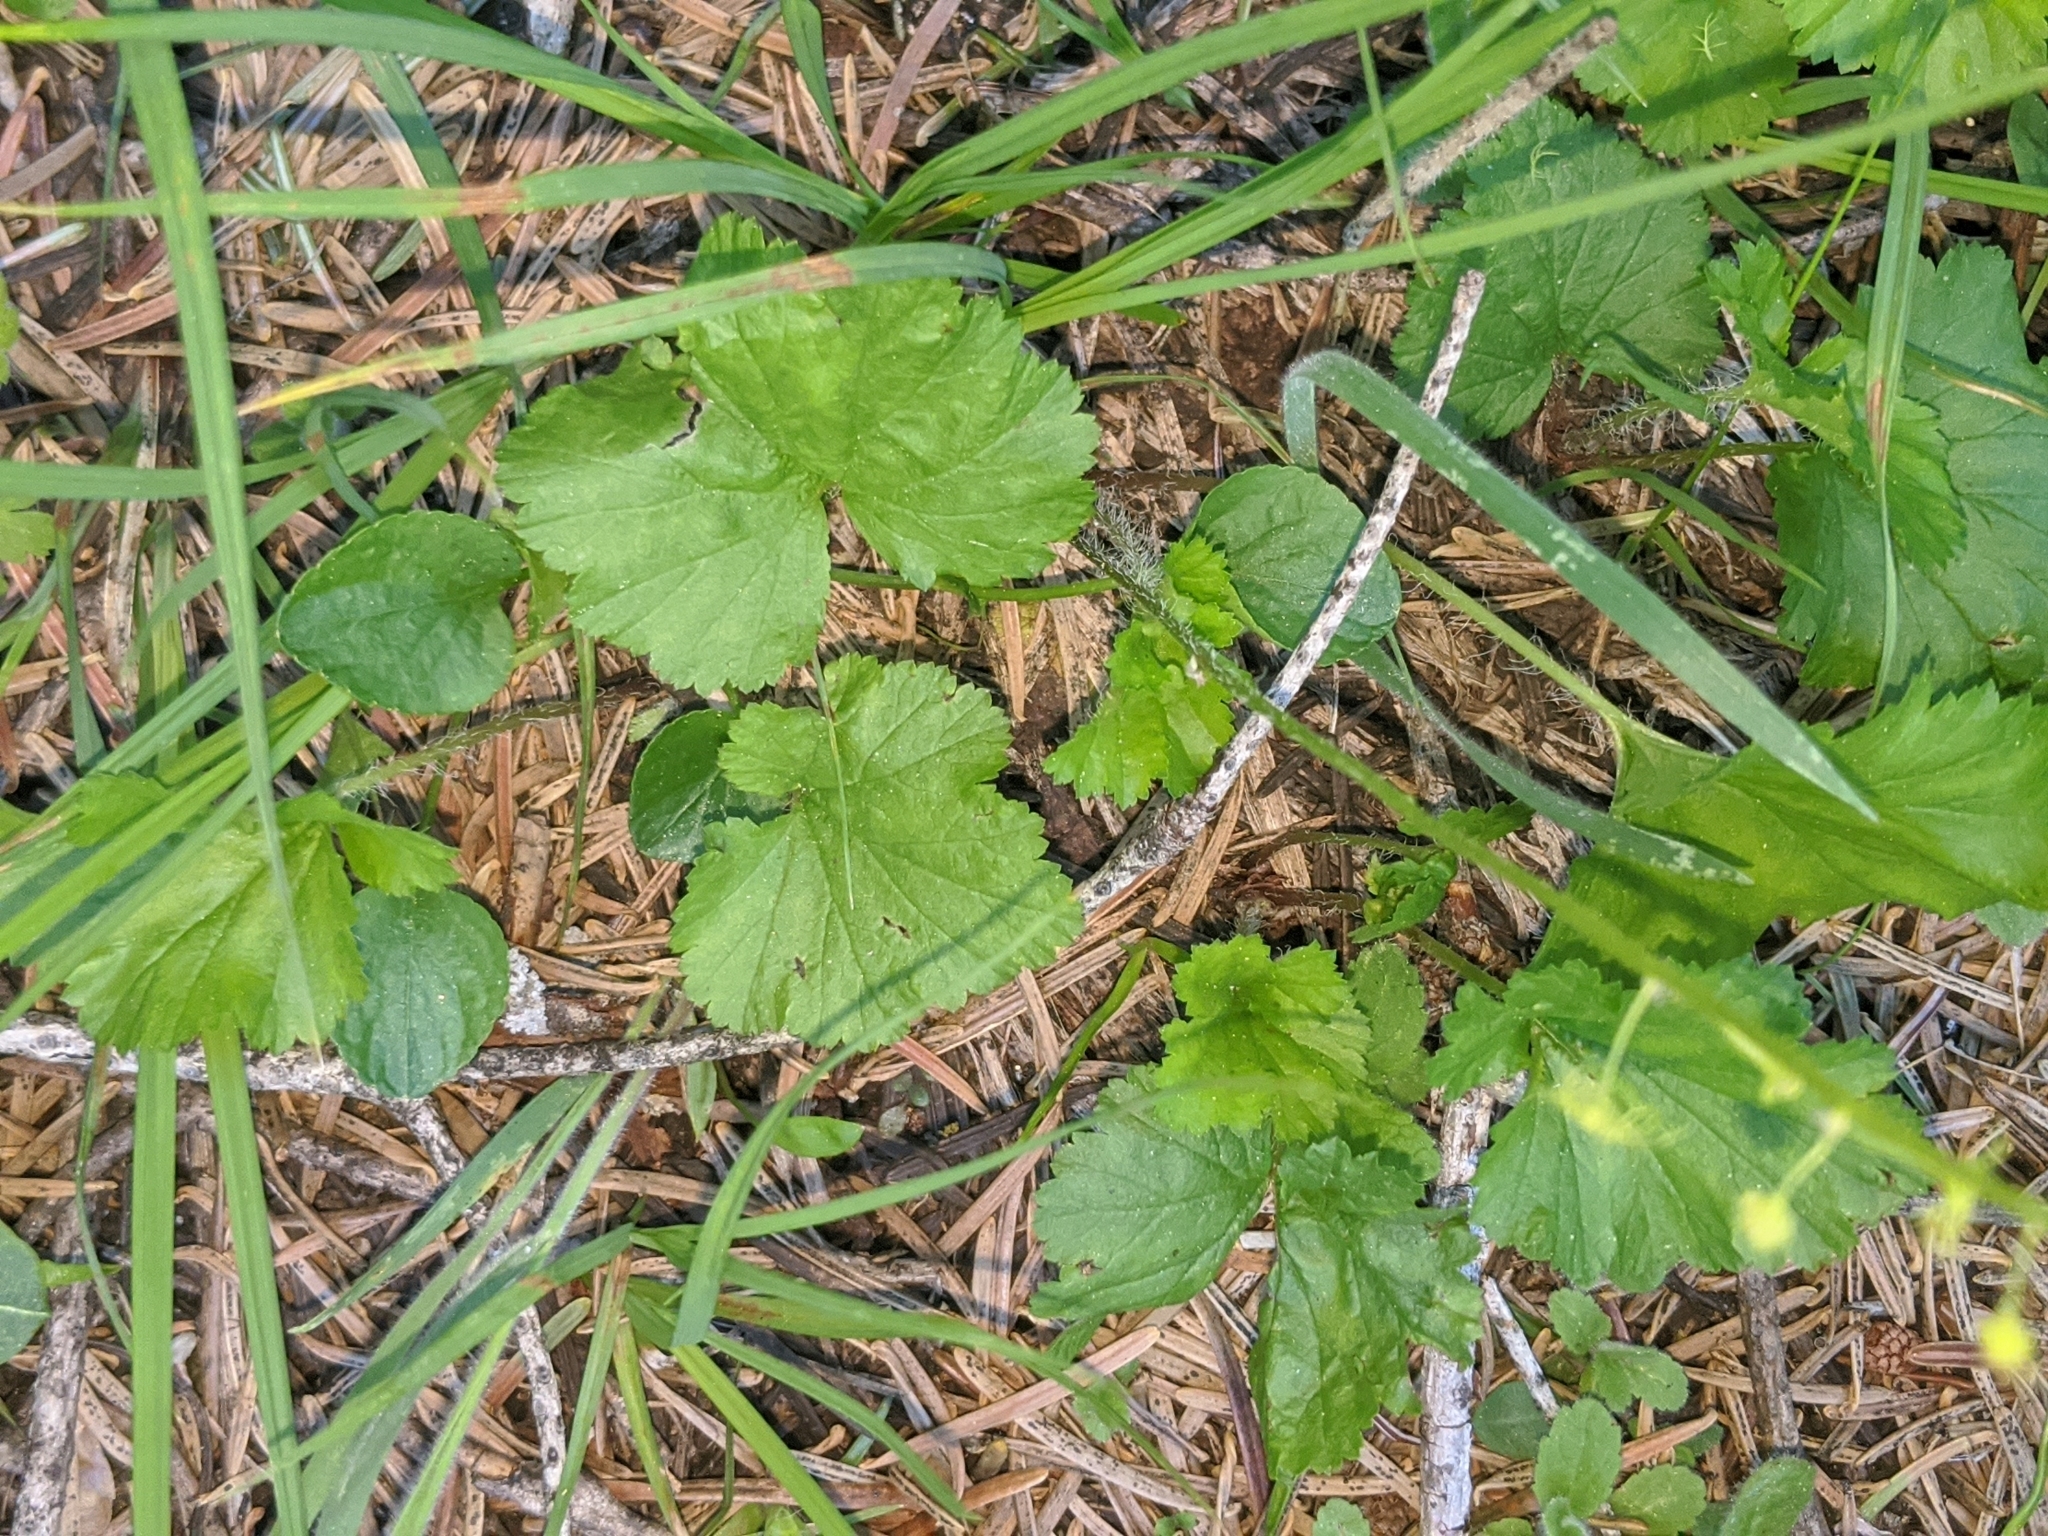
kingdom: Plantae
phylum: Tracheophyta
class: Magnoliopsida
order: Saxifragales
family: Saxifragaceae
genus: Brewerimitella
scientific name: Brewerimitella breweri
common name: Brewer's bishop's-cap
